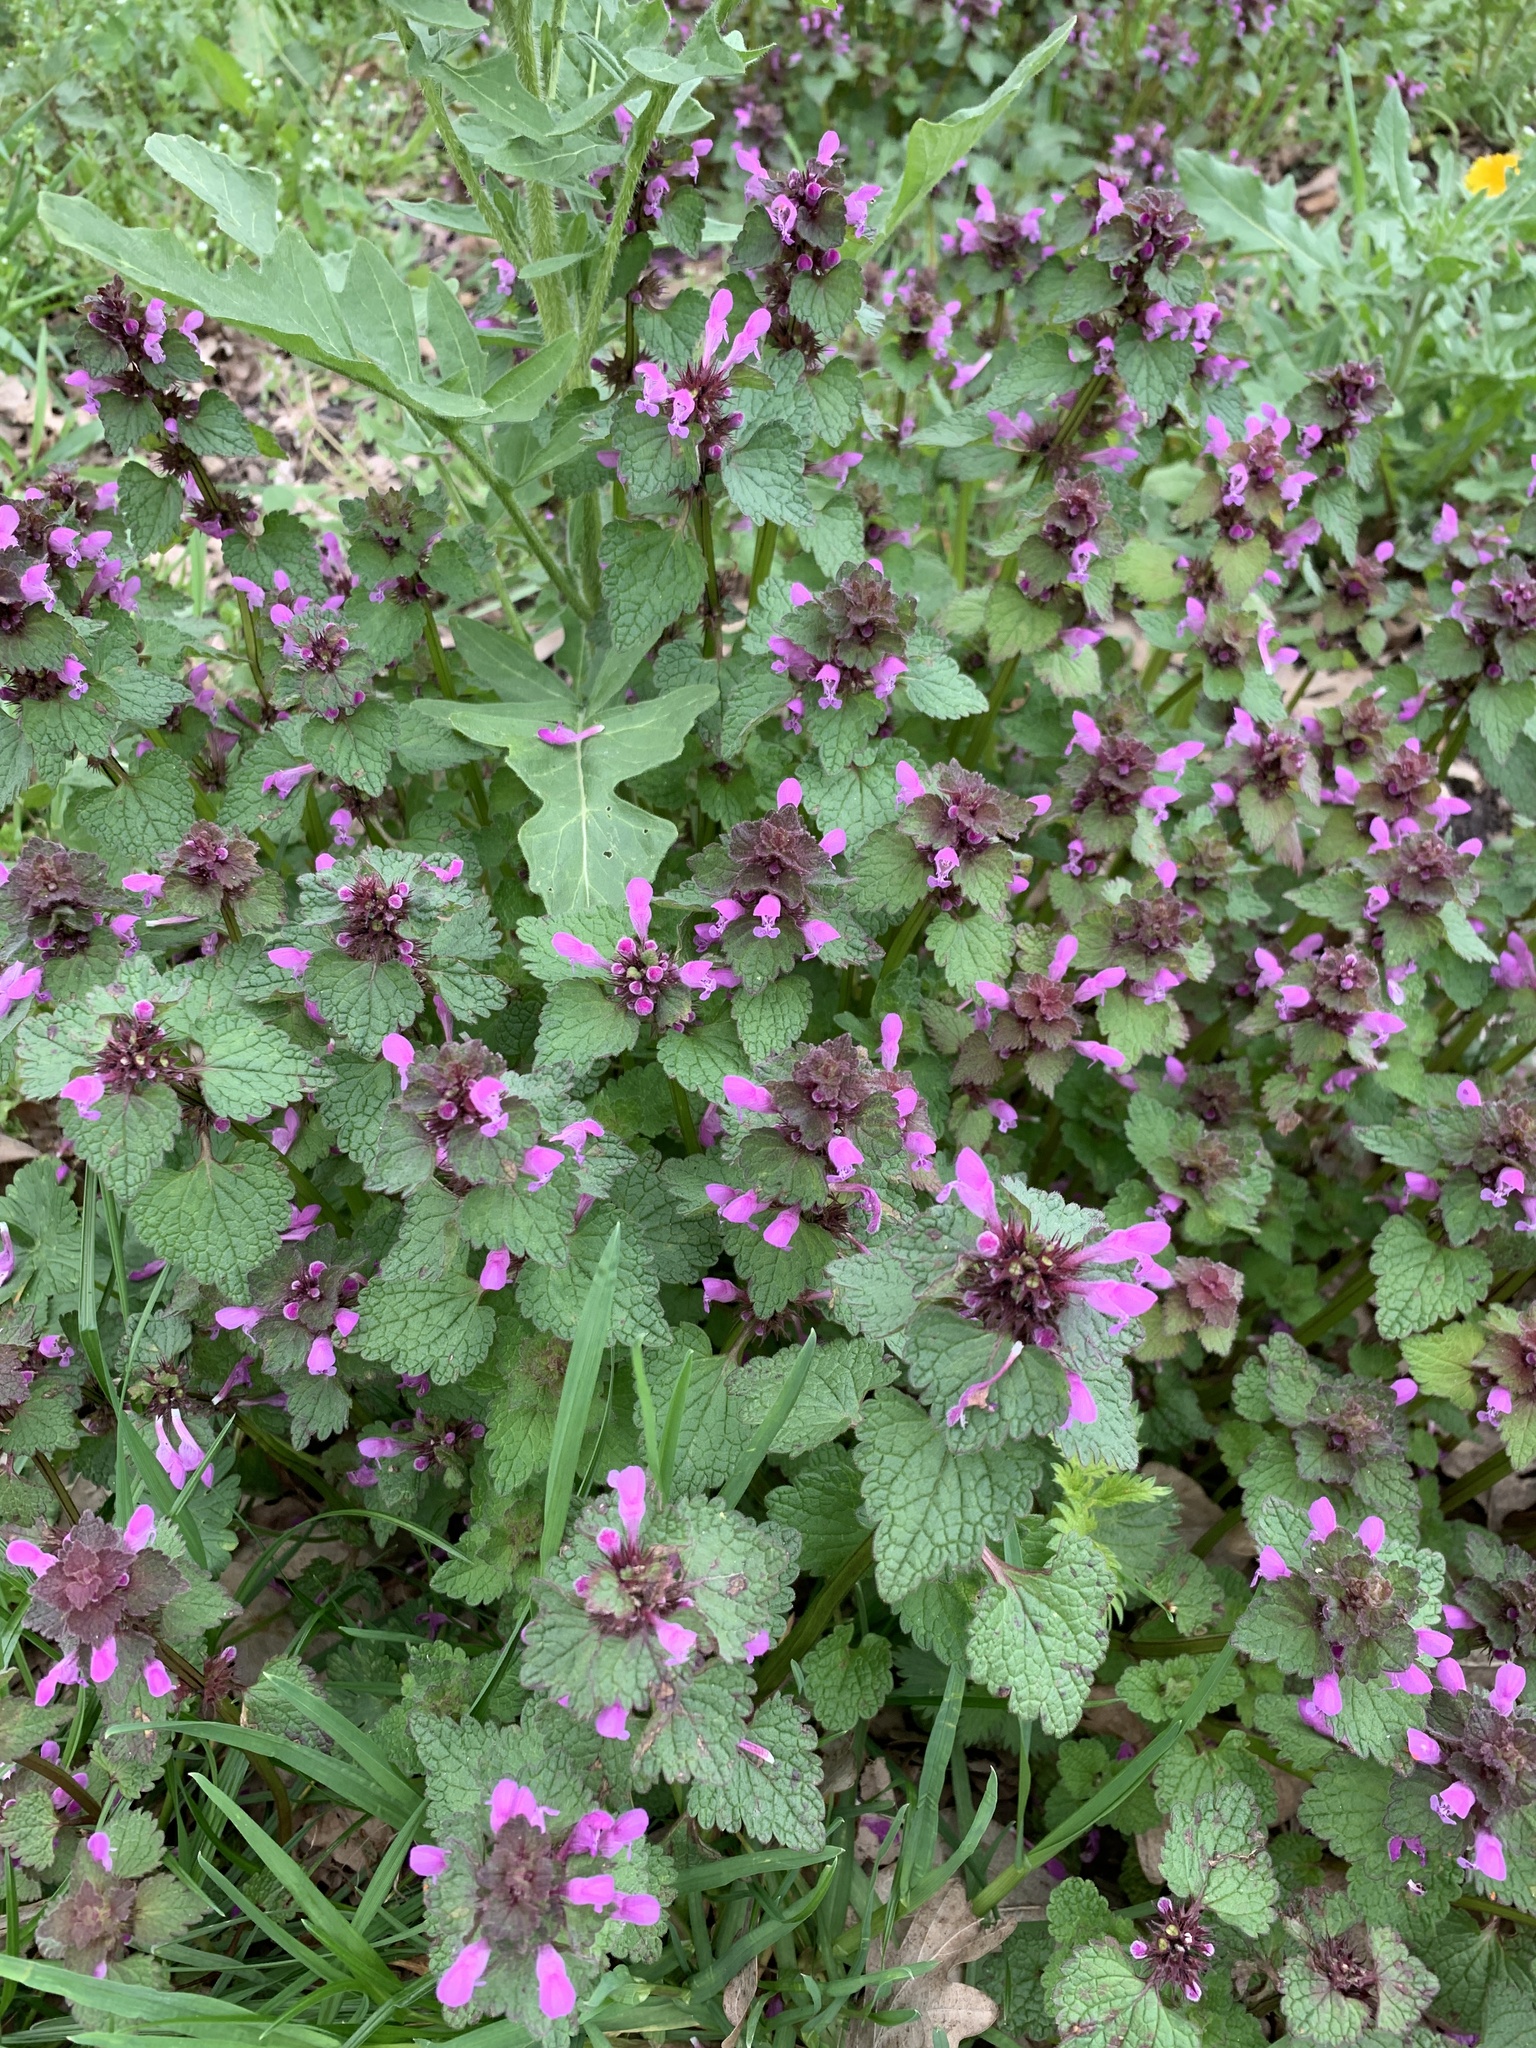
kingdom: Plantae
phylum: Tracheophyta
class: Magnoliopsida
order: Lamiales
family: Lamiaceae
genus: Lamium
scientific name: Lamium purpureum
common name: Red dead-nettle
